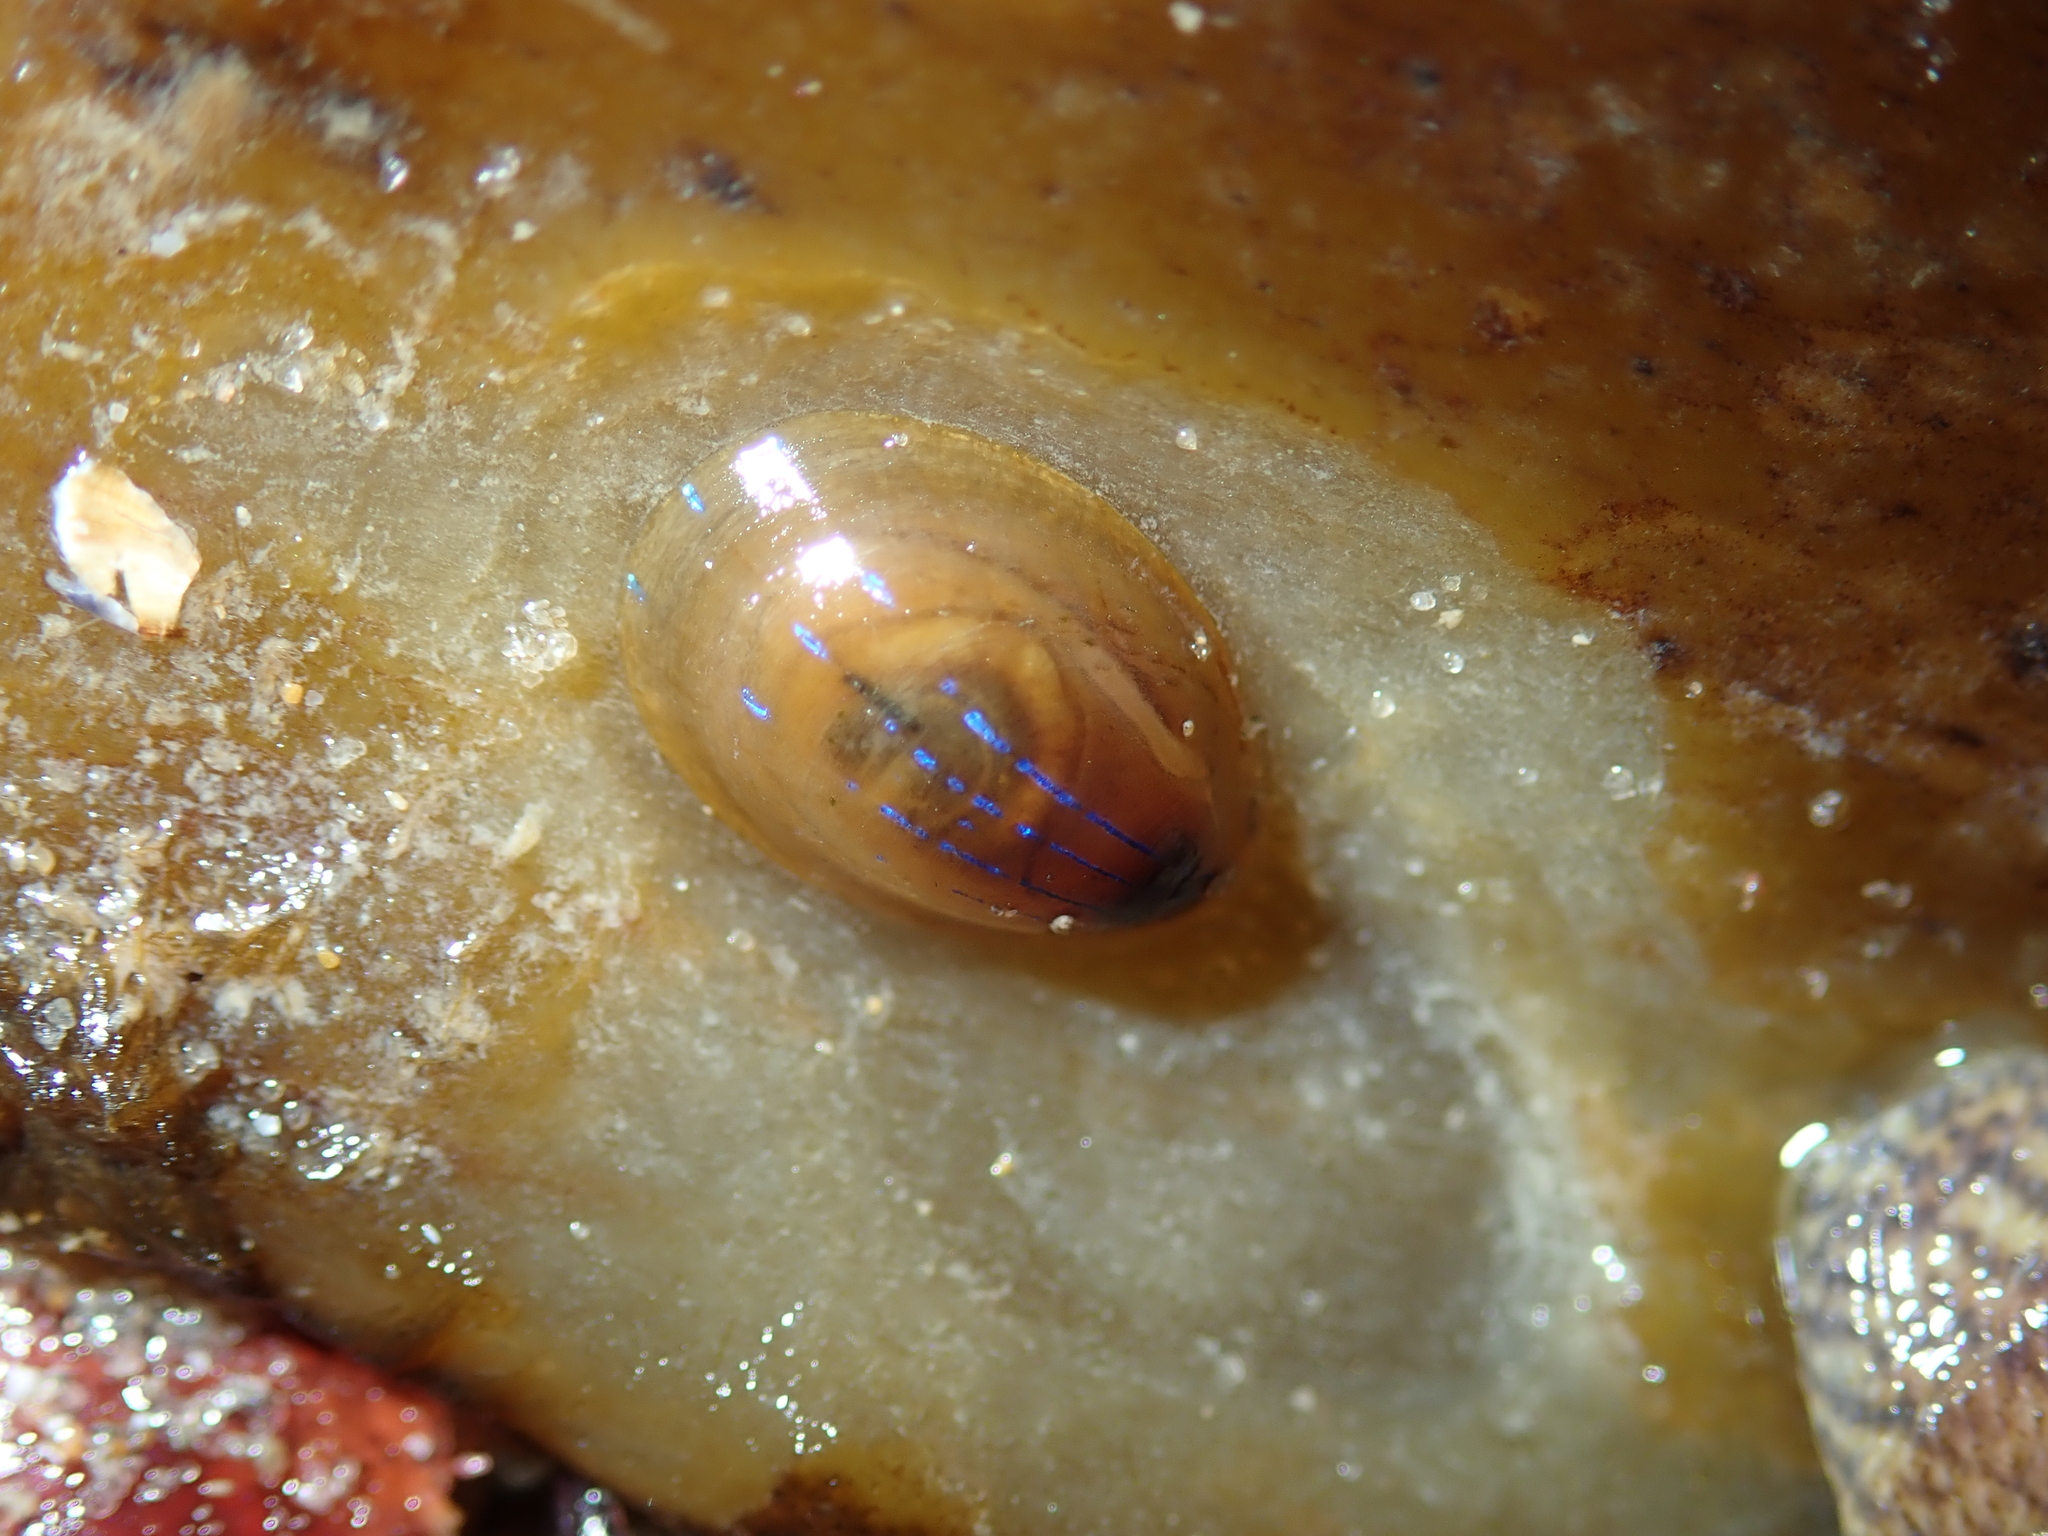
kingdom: Animalia
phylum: Mollusca
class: Gastropoda
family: Patellidae
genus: Patella
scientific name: Patella pellucida
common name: Blue-rayed limpet
